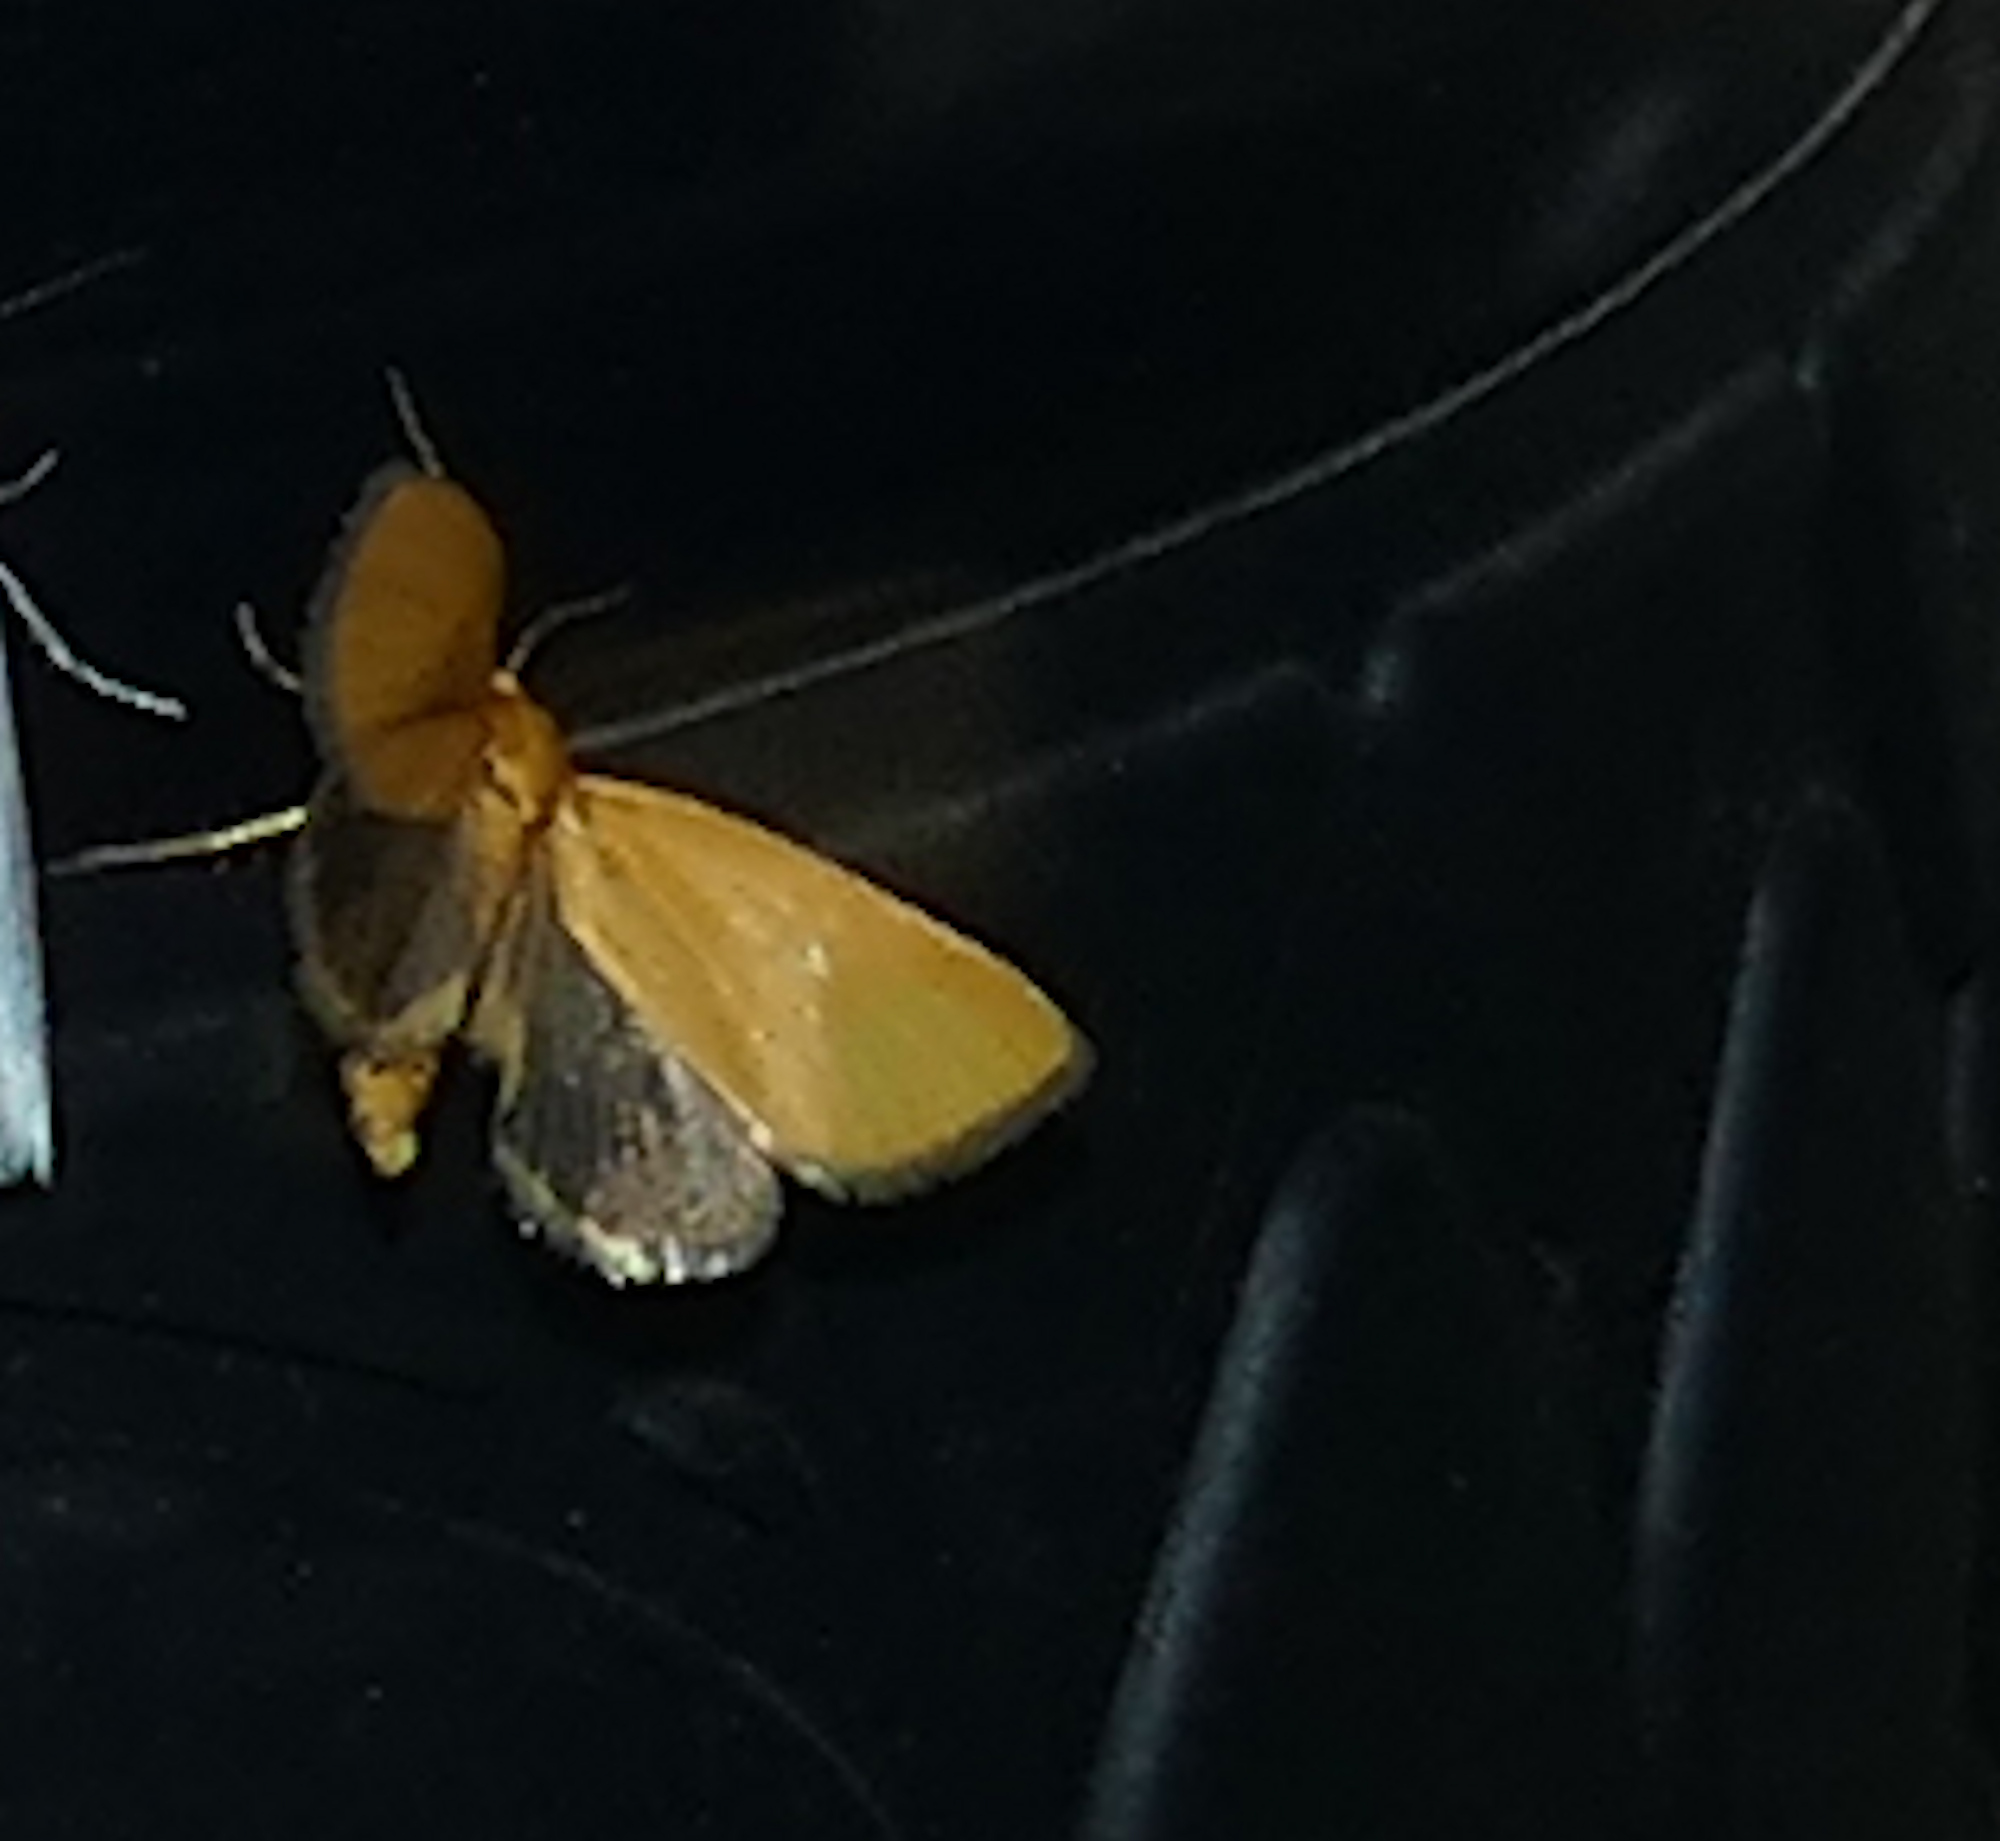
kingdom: Animalia
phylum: Arthropoda
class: Insecta
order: Lepidoptera
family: Noctuidae
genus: Antaplaga
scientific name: Antaplaga Eulithosia composita
